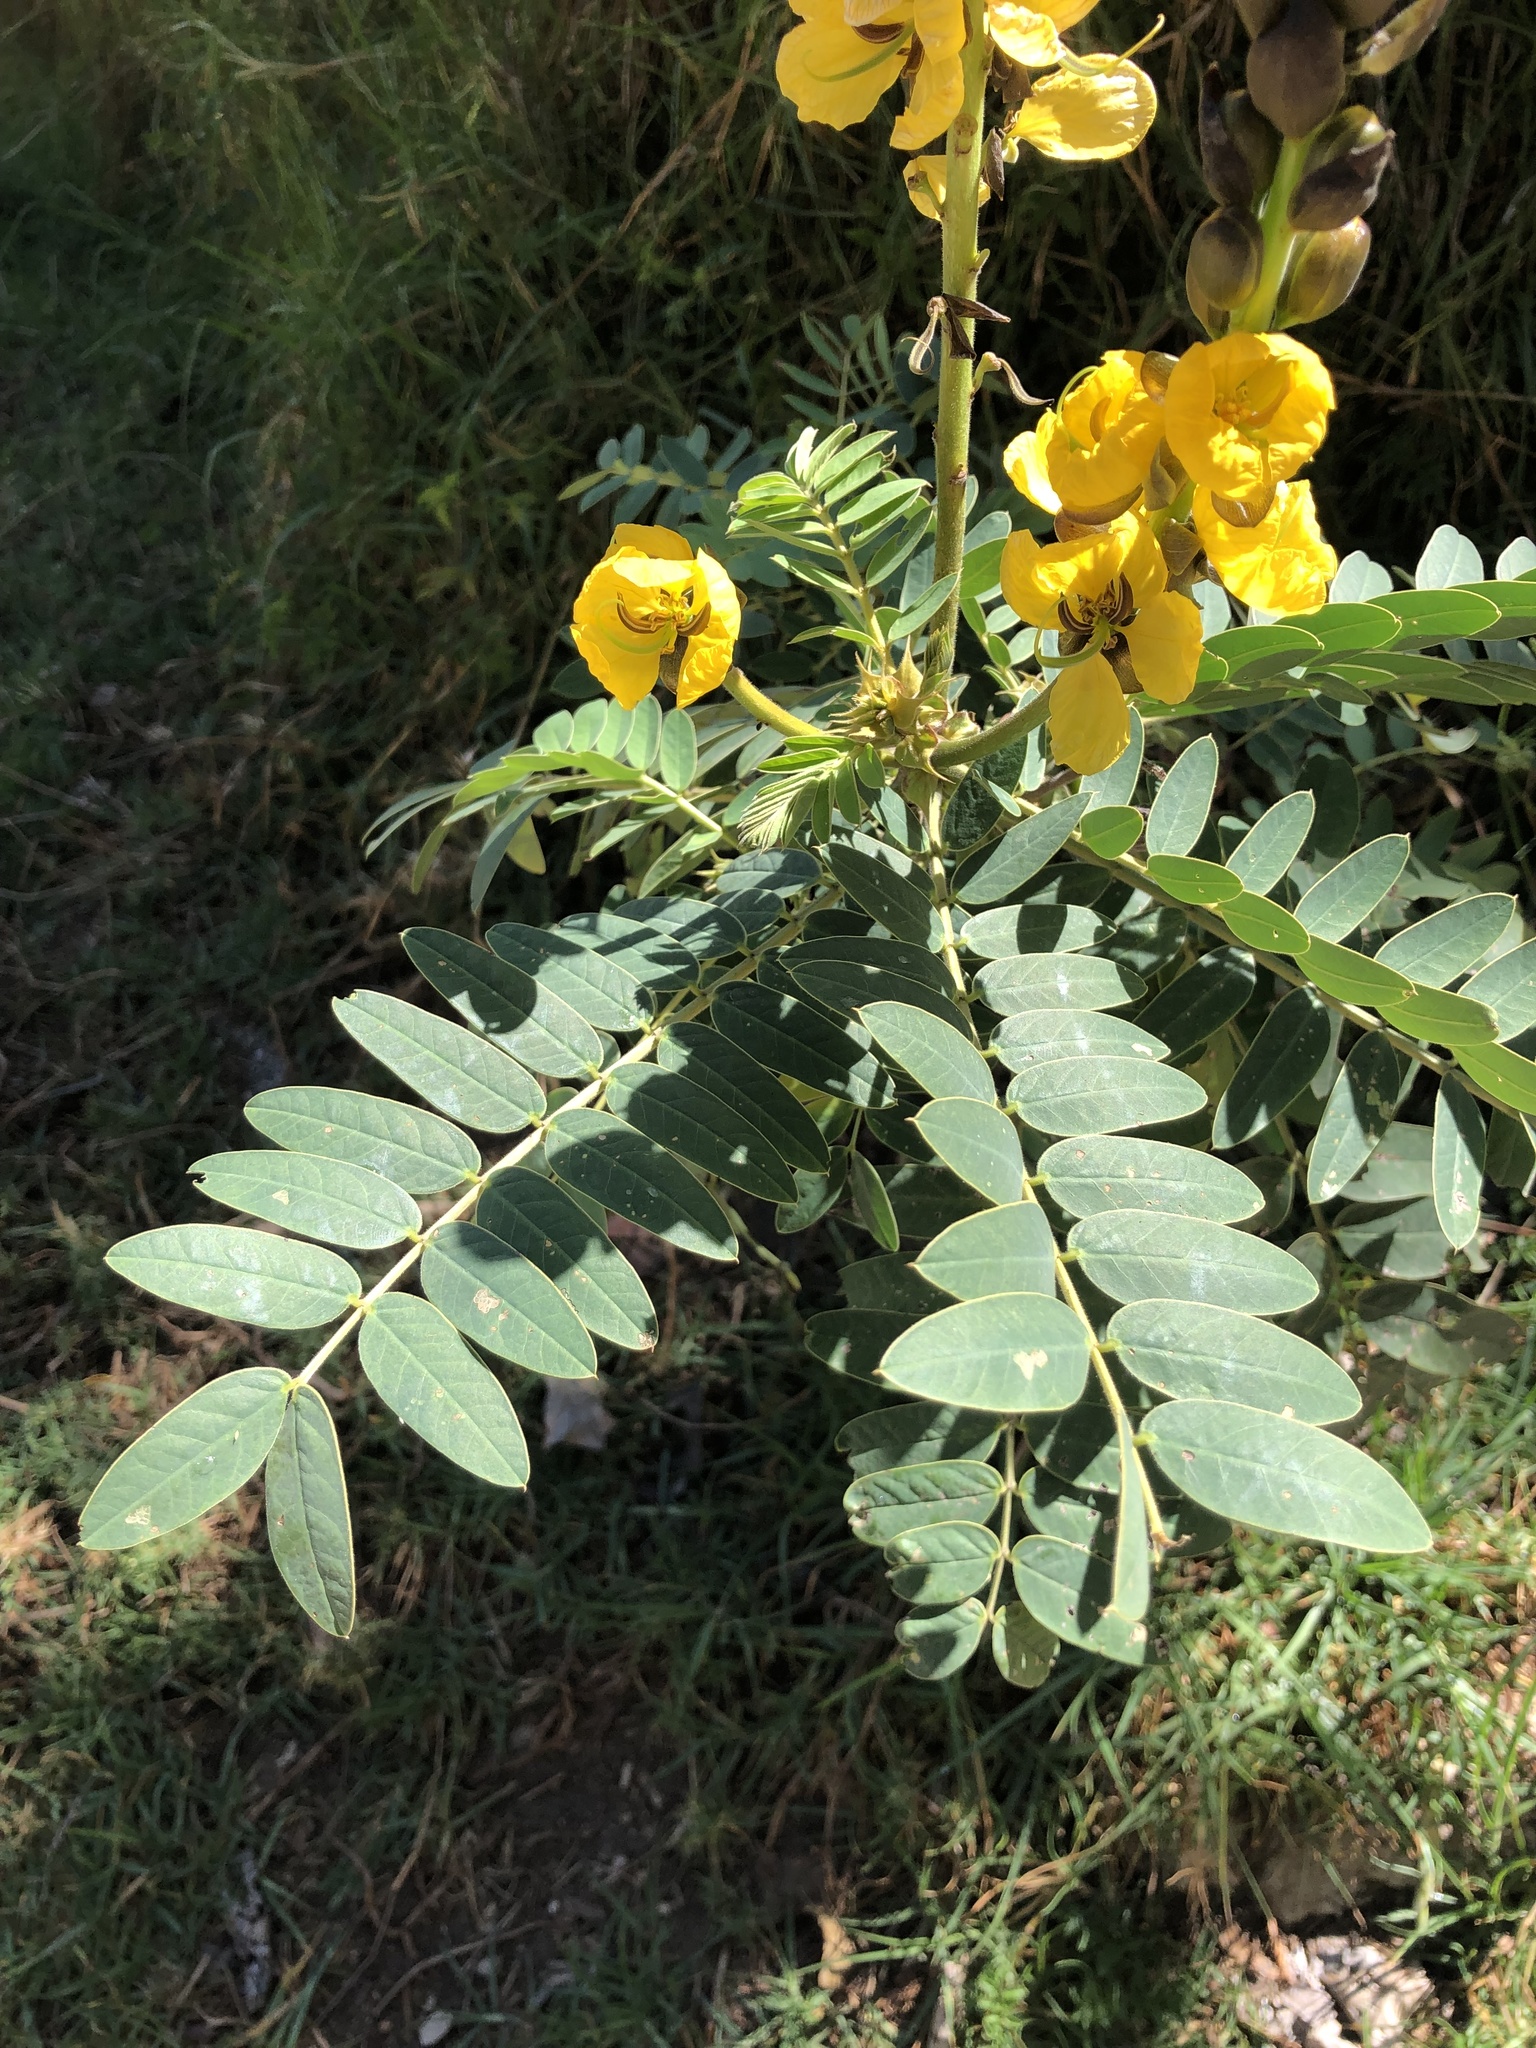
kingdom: Plantae
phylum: Tracheophyta
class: Magnoliopsida
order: Fabales
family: Fabaceae
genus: Senna
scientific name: Senna didymobotrya
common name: African senna
